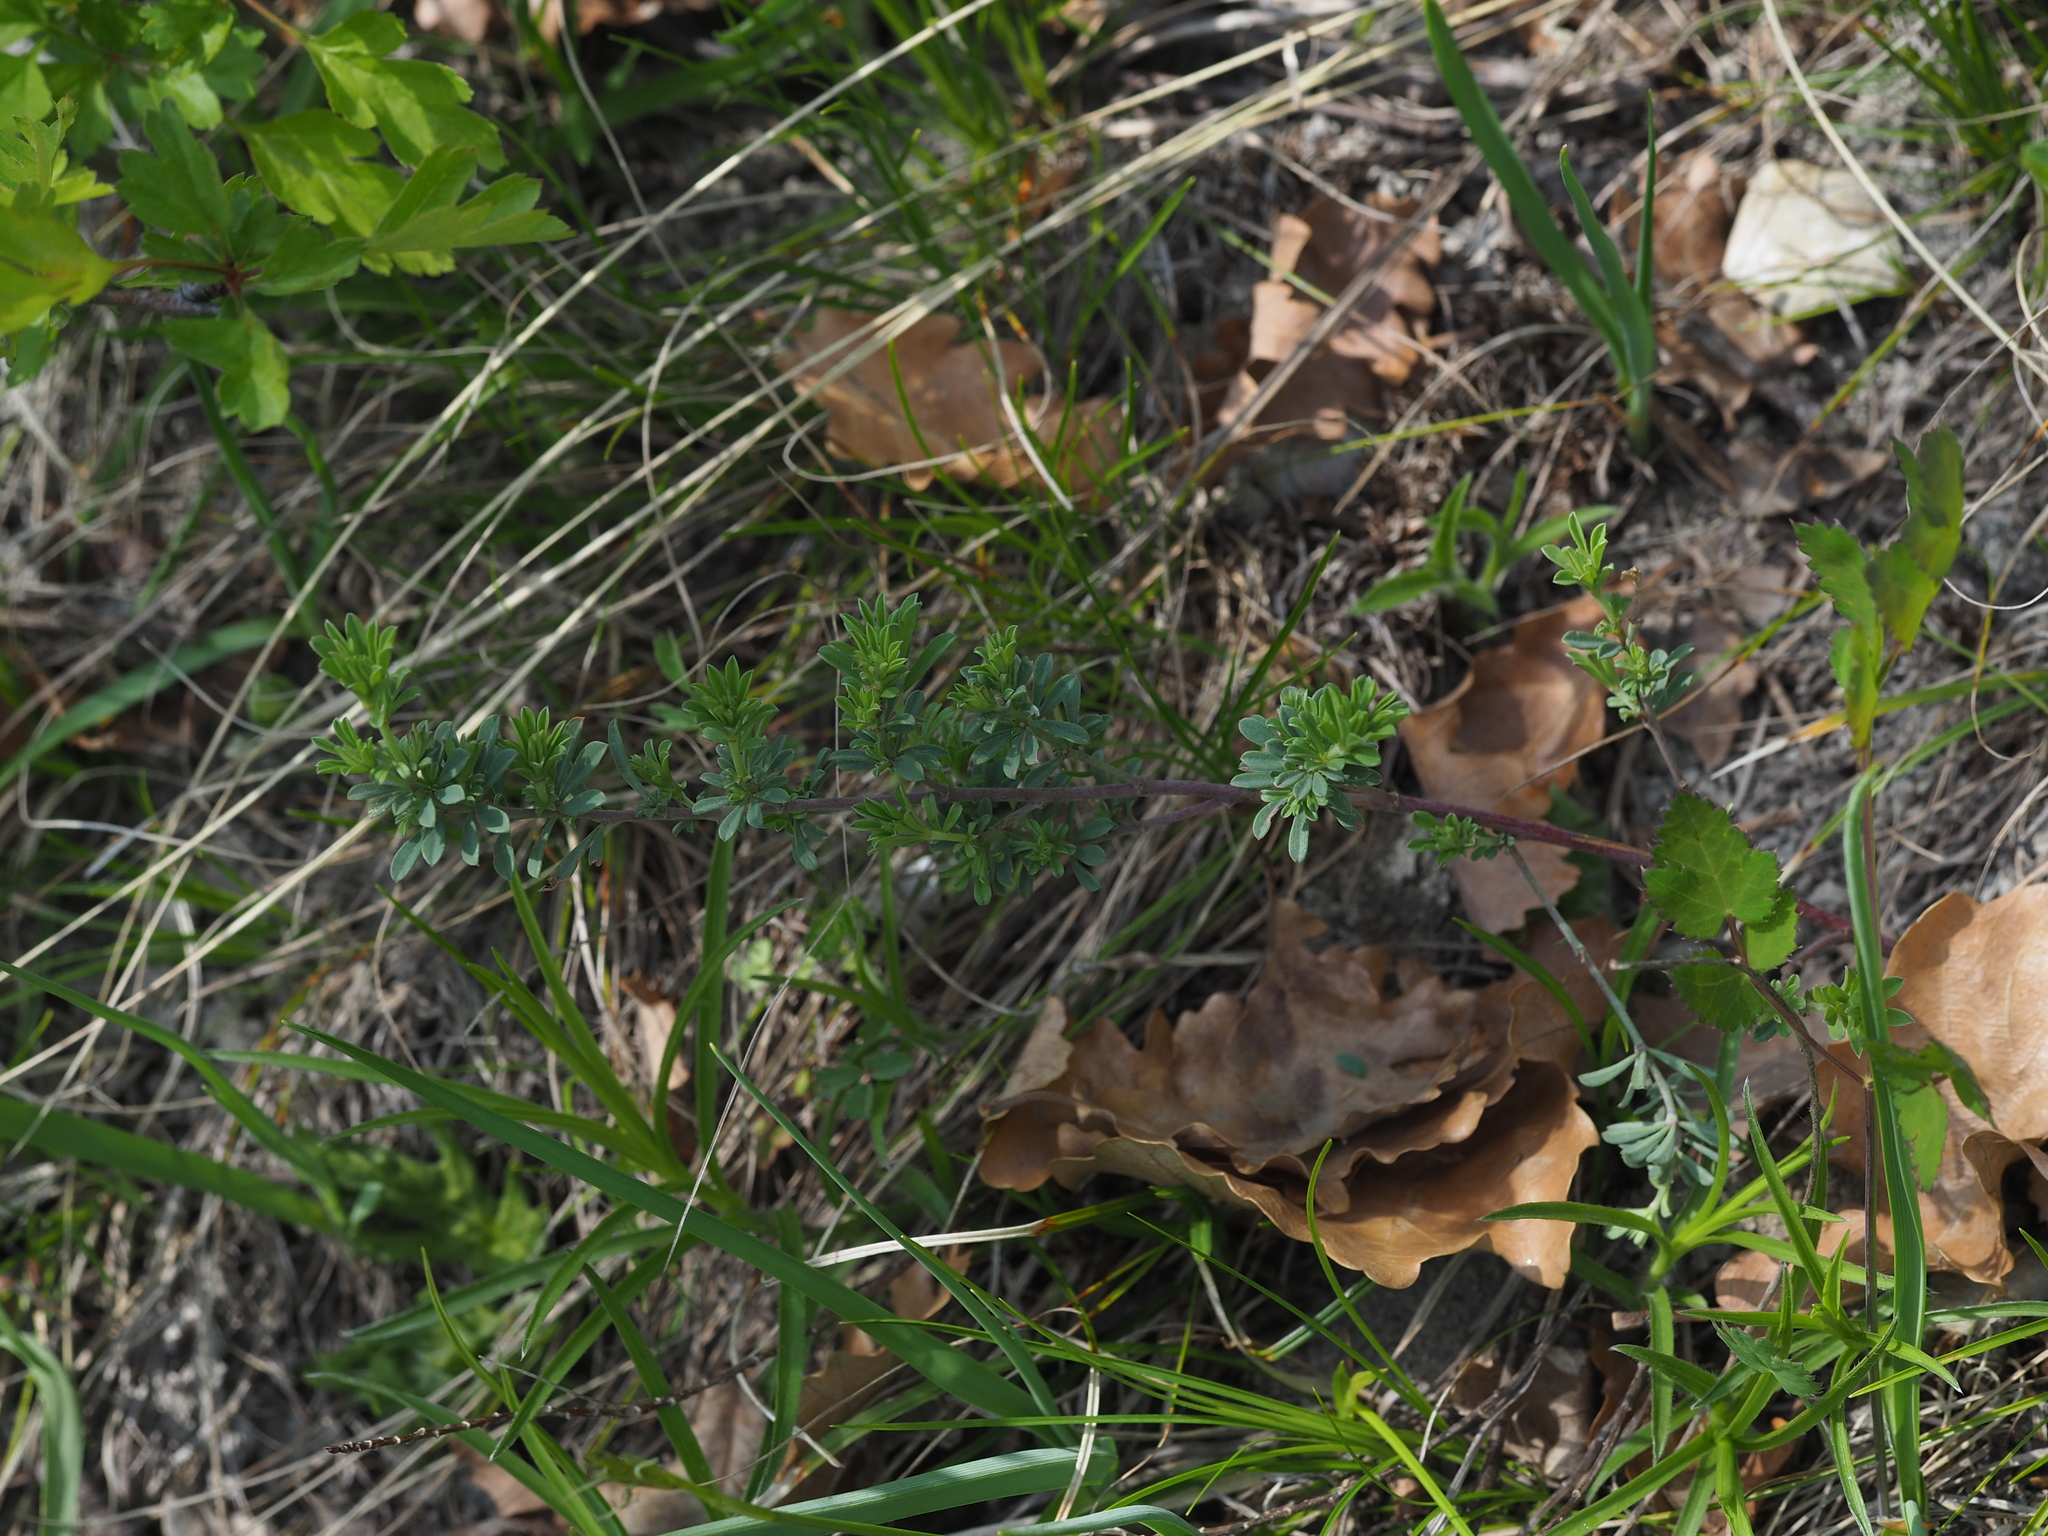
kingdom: Plantae
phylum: Tracheophyta
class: Magnoliopsida
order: Fabales
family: Fabaceae
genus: Lotus
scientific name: Lotus germanicus
